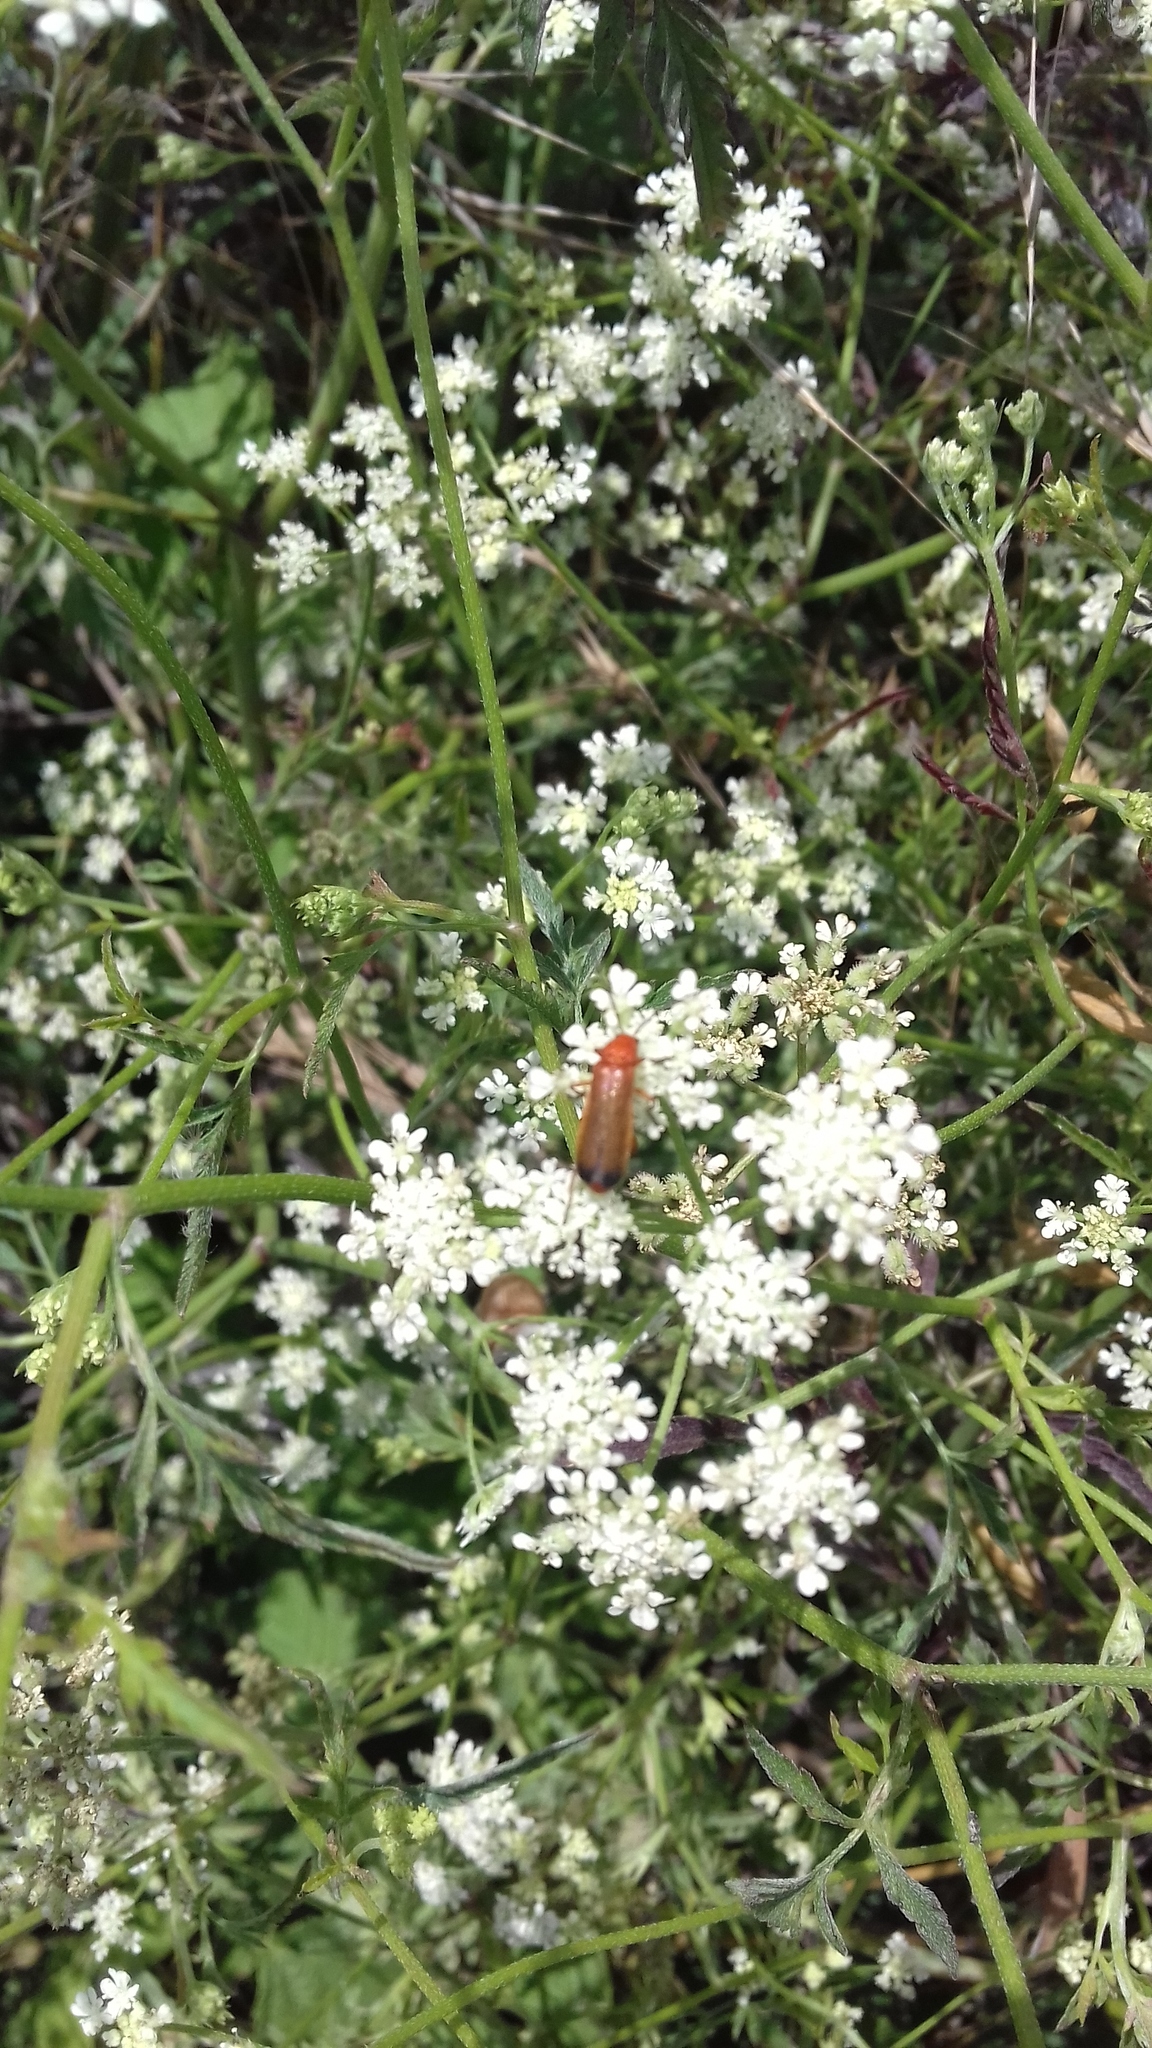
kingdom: Animalia
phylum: Arthropoda
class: Insecta
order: Coleoptera
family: Cantharidae
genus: Rhagonycha
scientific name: Rhagonycha fulva
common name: Common red soldier beetle
